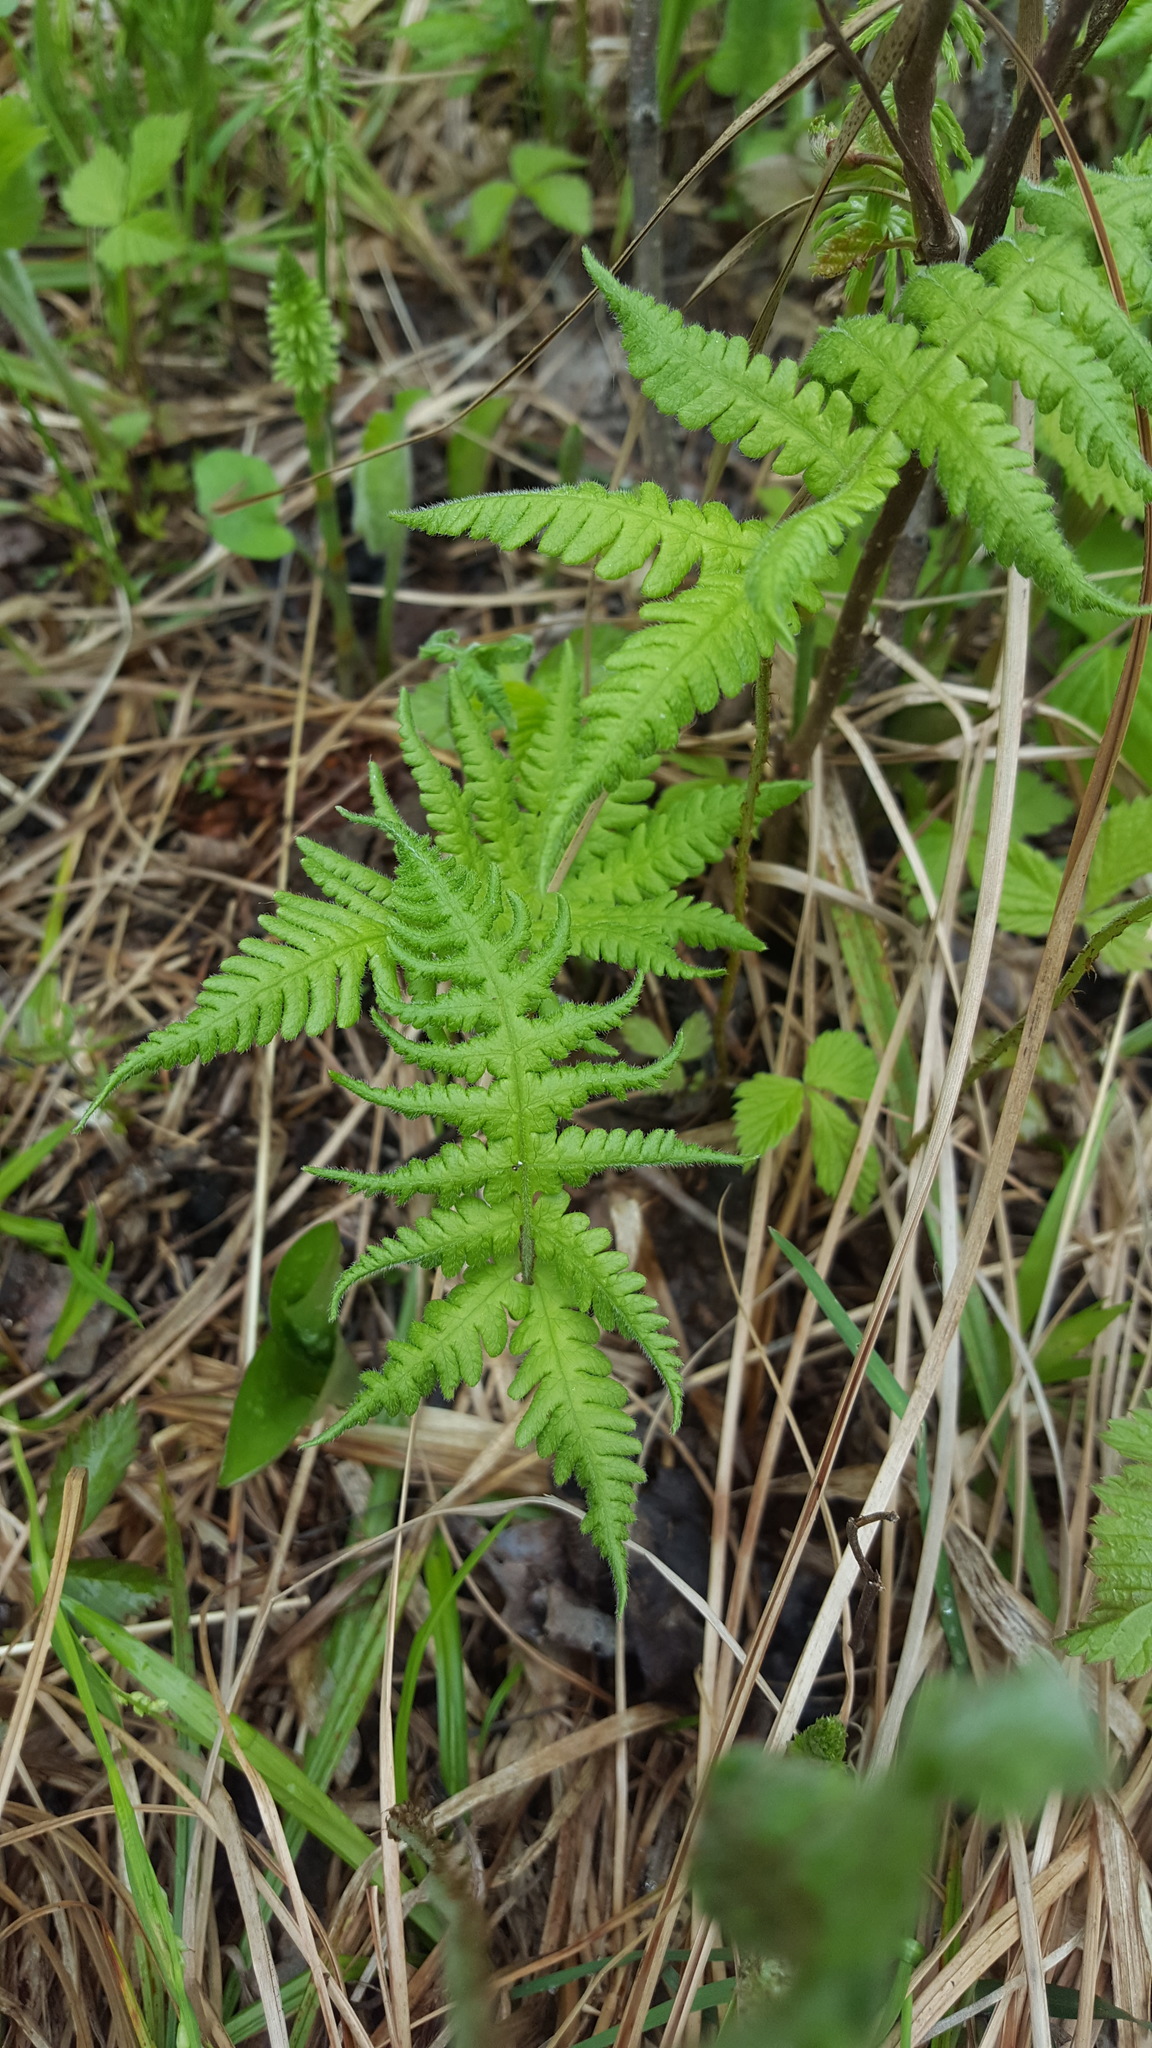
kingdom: Plantae
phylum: Tracheophyta
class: Polypodiopsida
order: Polypodiales
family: Thelypteridaceae
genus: Phegopteris
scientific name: Phegopteris connectilis
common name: Beech fern
